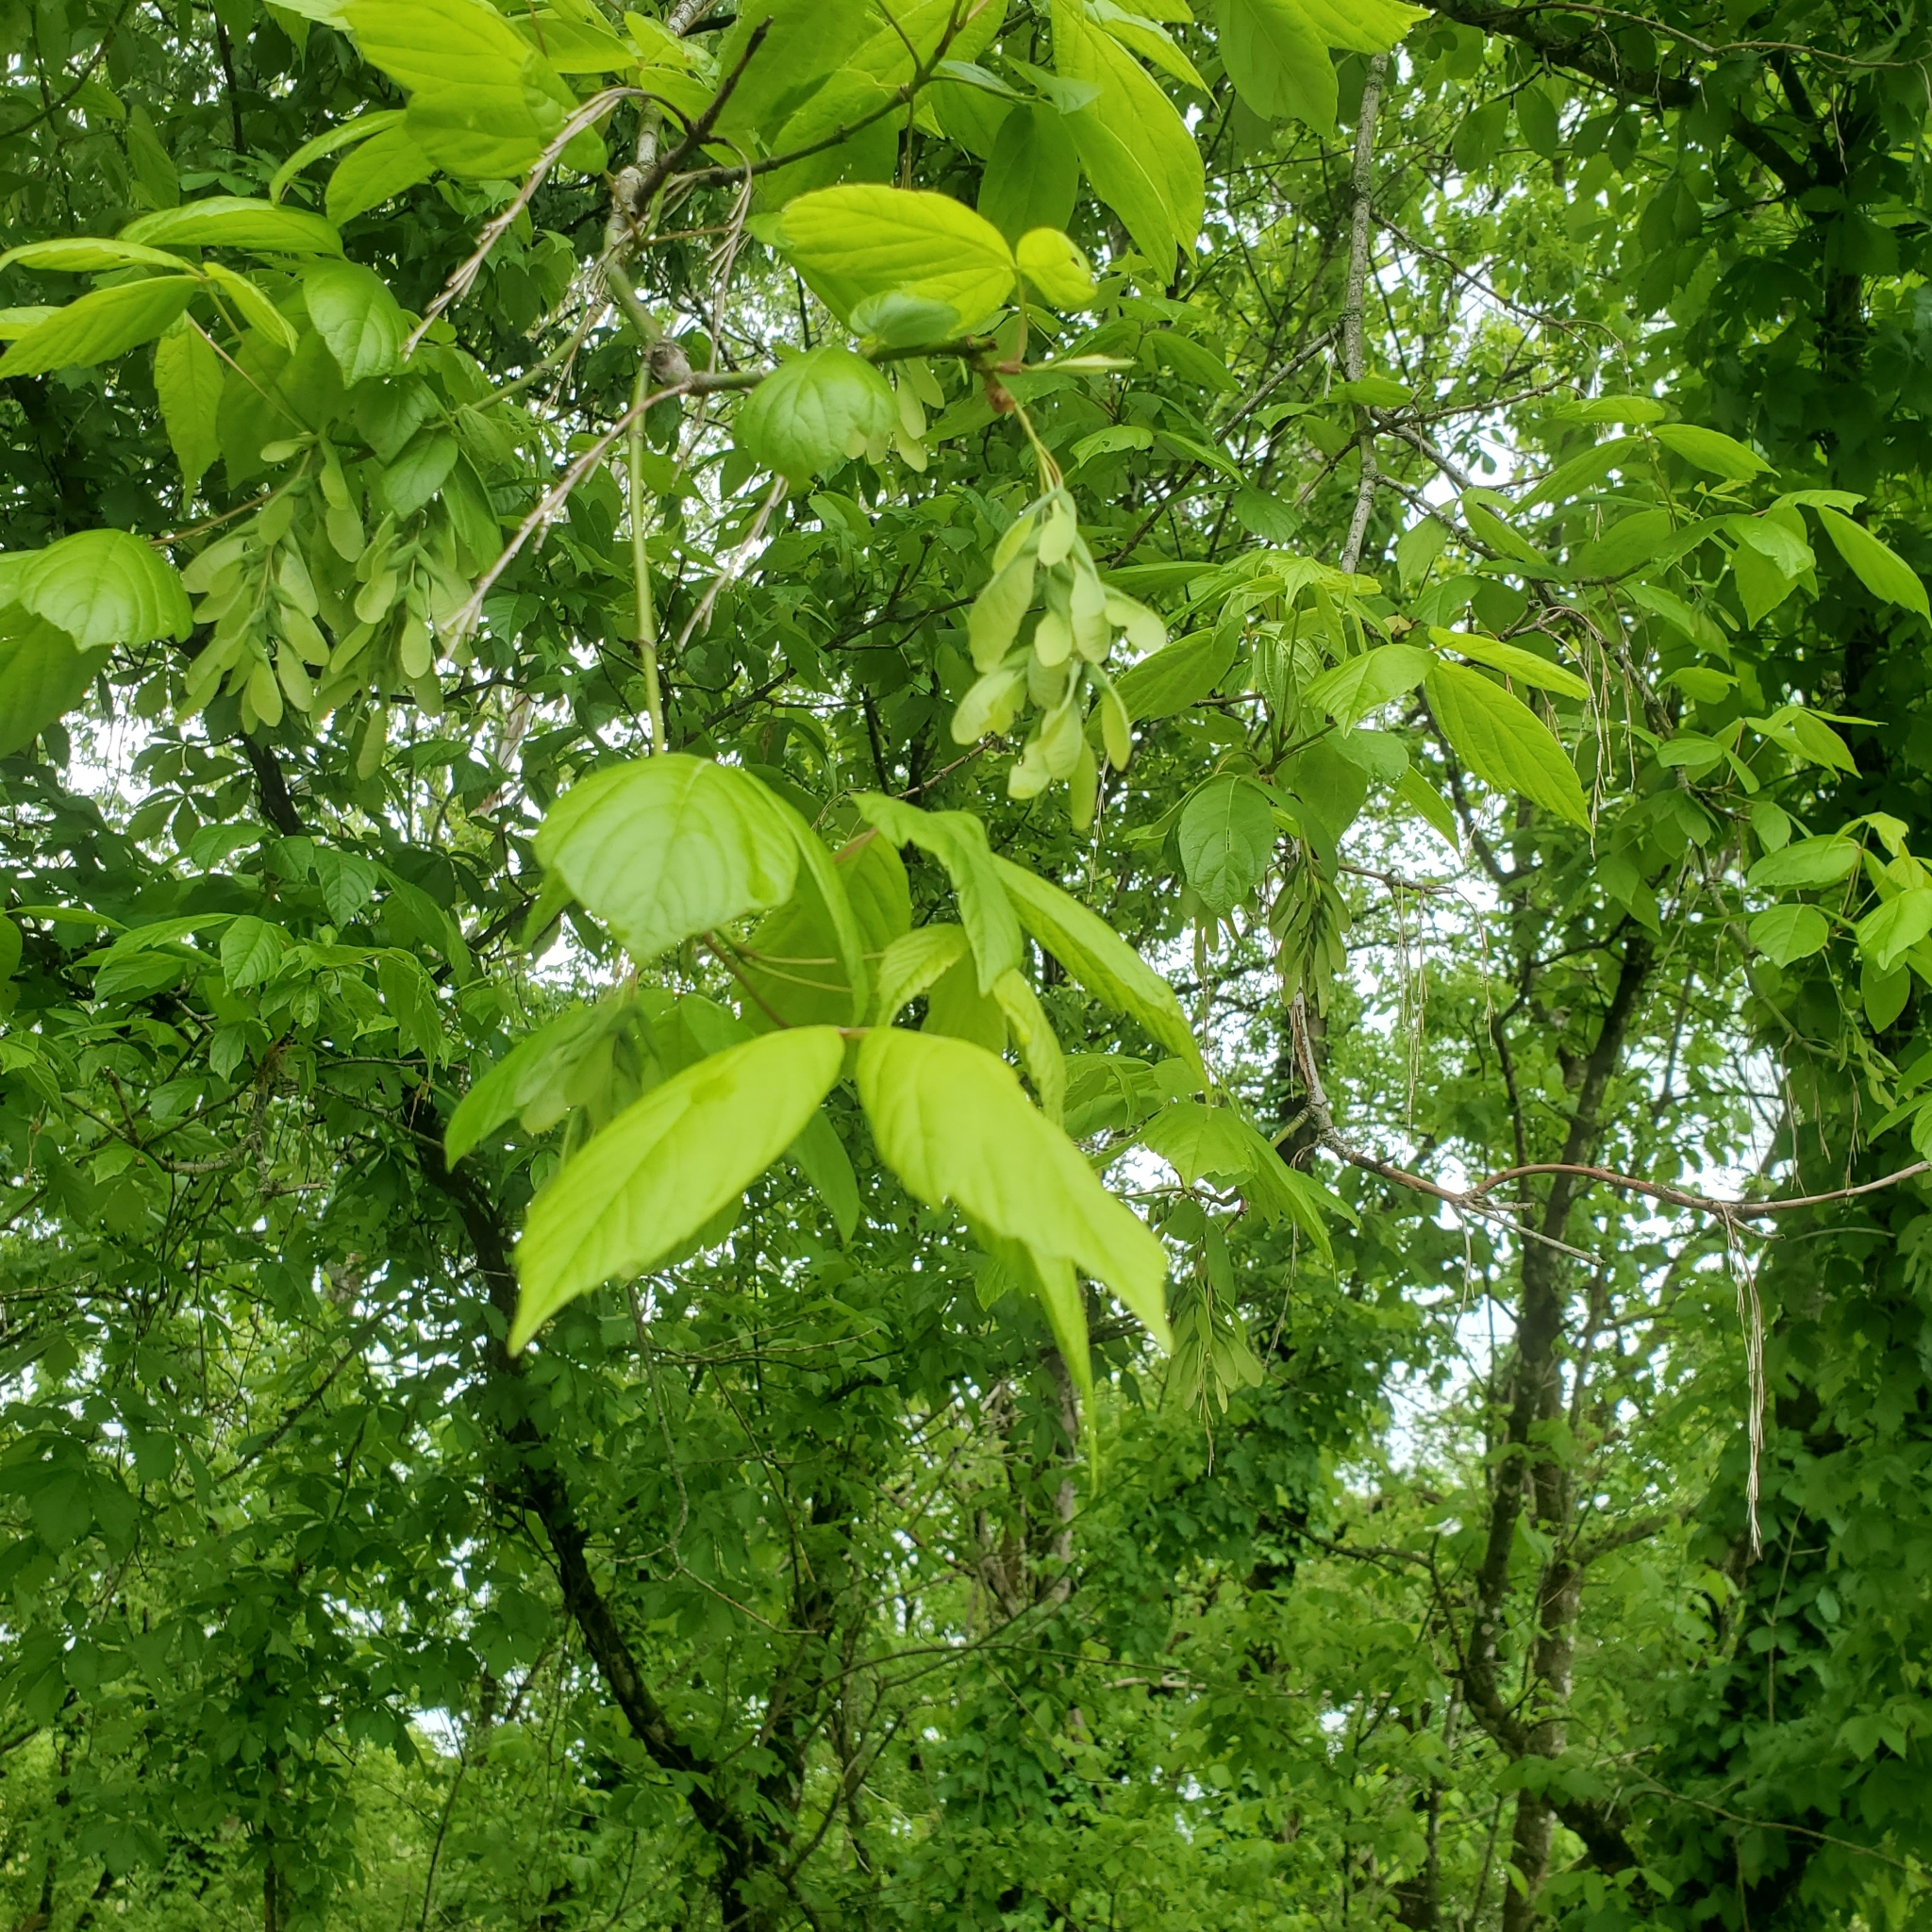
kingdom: Plantae
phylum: Tracheophyta
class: Magnoliopsida
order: Sapindales
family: Sapindaceae
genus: Acer
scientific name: Acer negundo
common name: Ashleaf maple
